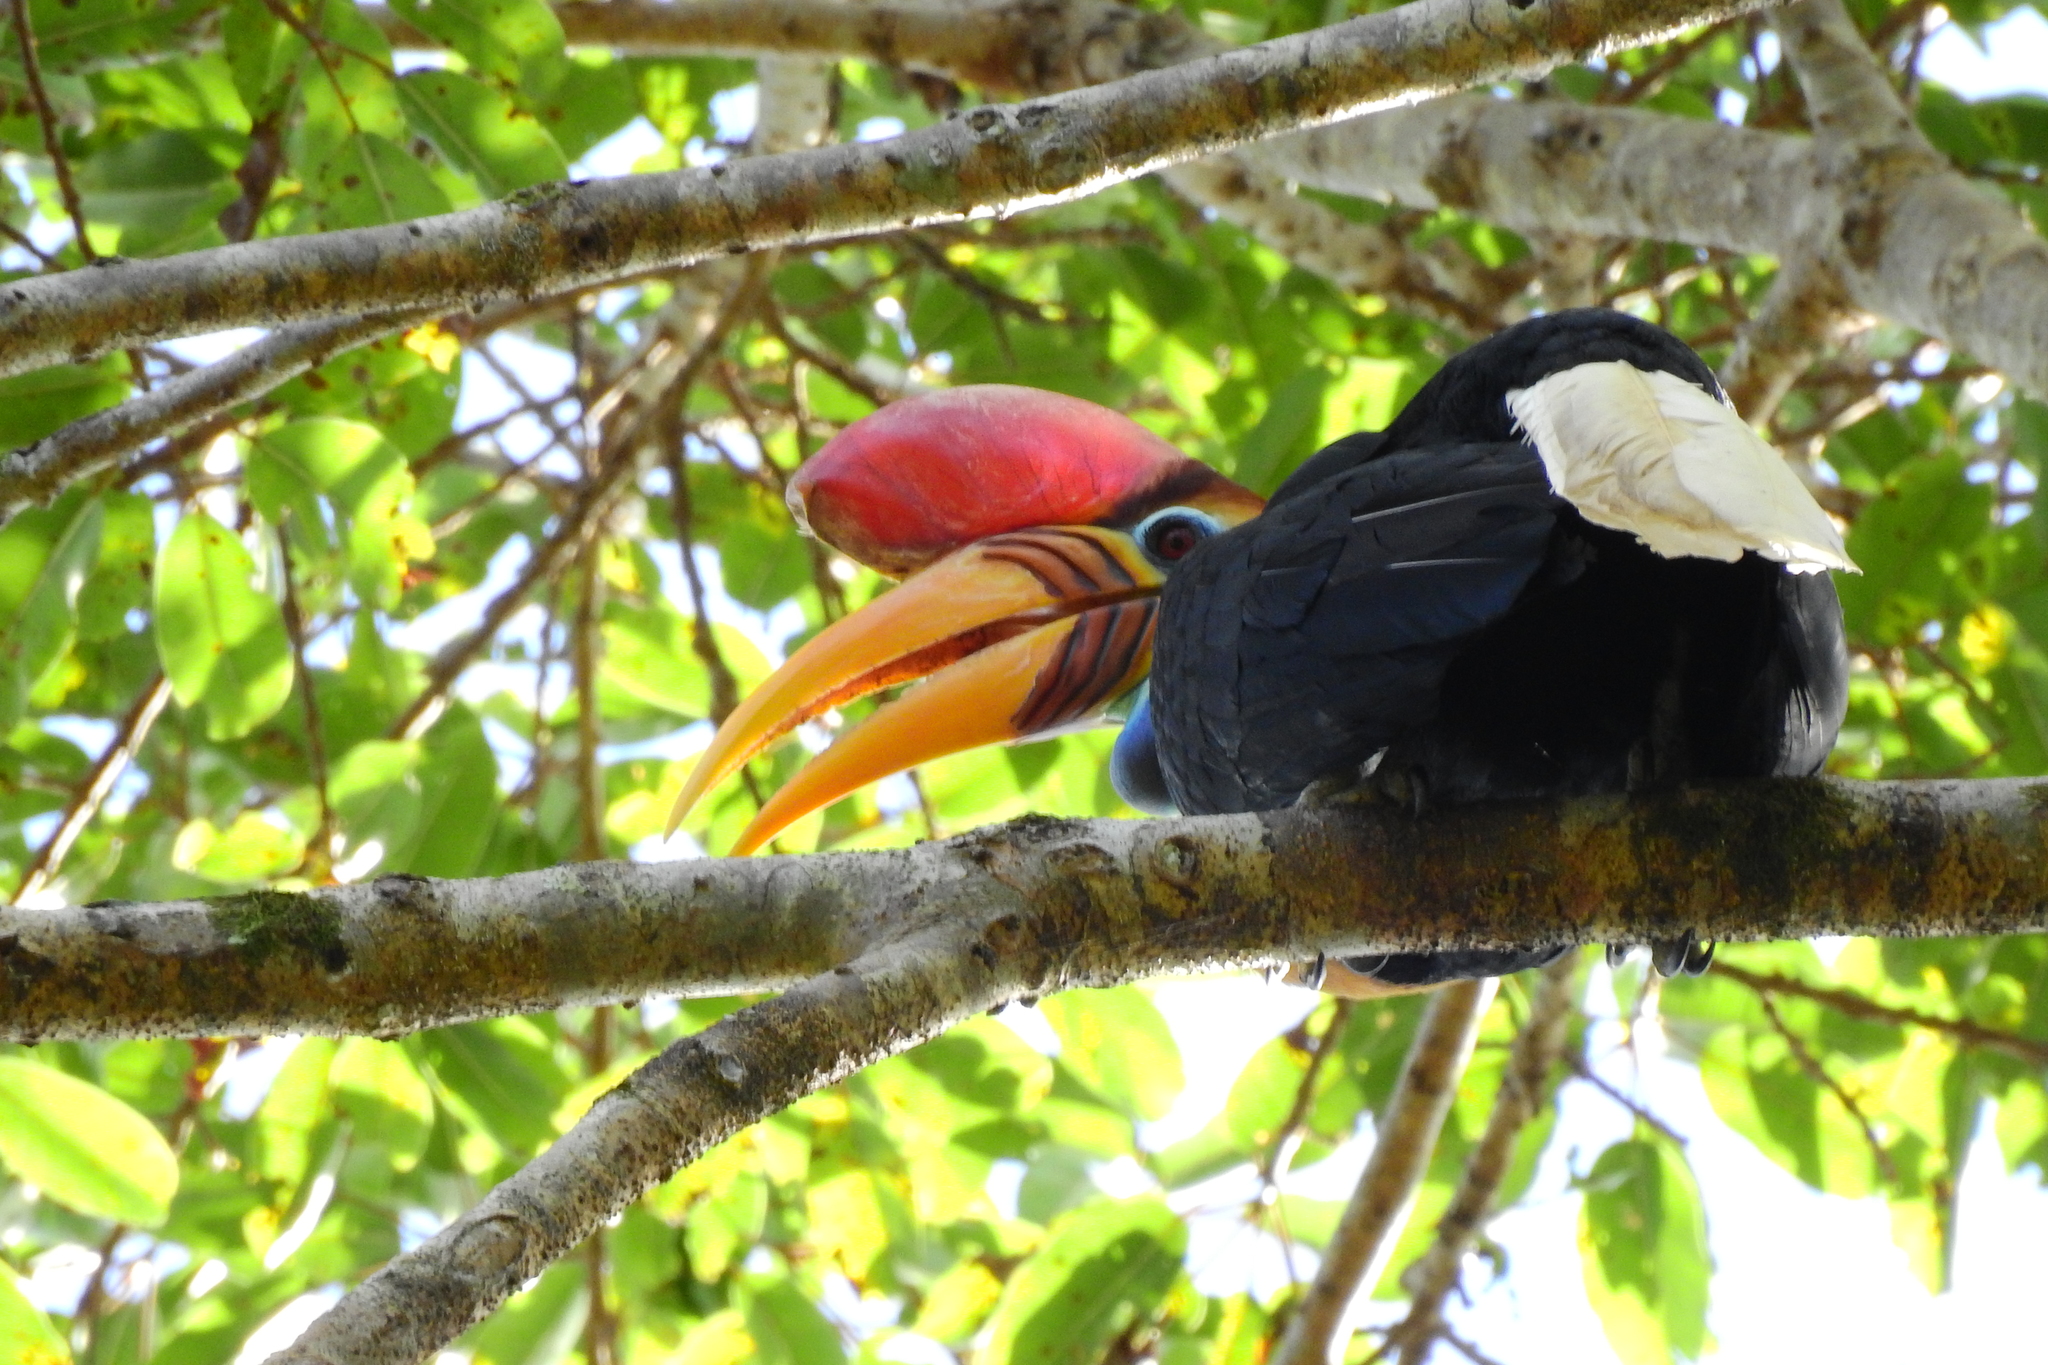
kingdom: Animalia
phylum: Chordata
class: Aves
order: Bucerotiformes
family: Bucerotidae
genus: Rhyticeros
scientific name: Rhyticeros cassidix
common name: Knobbed hornbill
